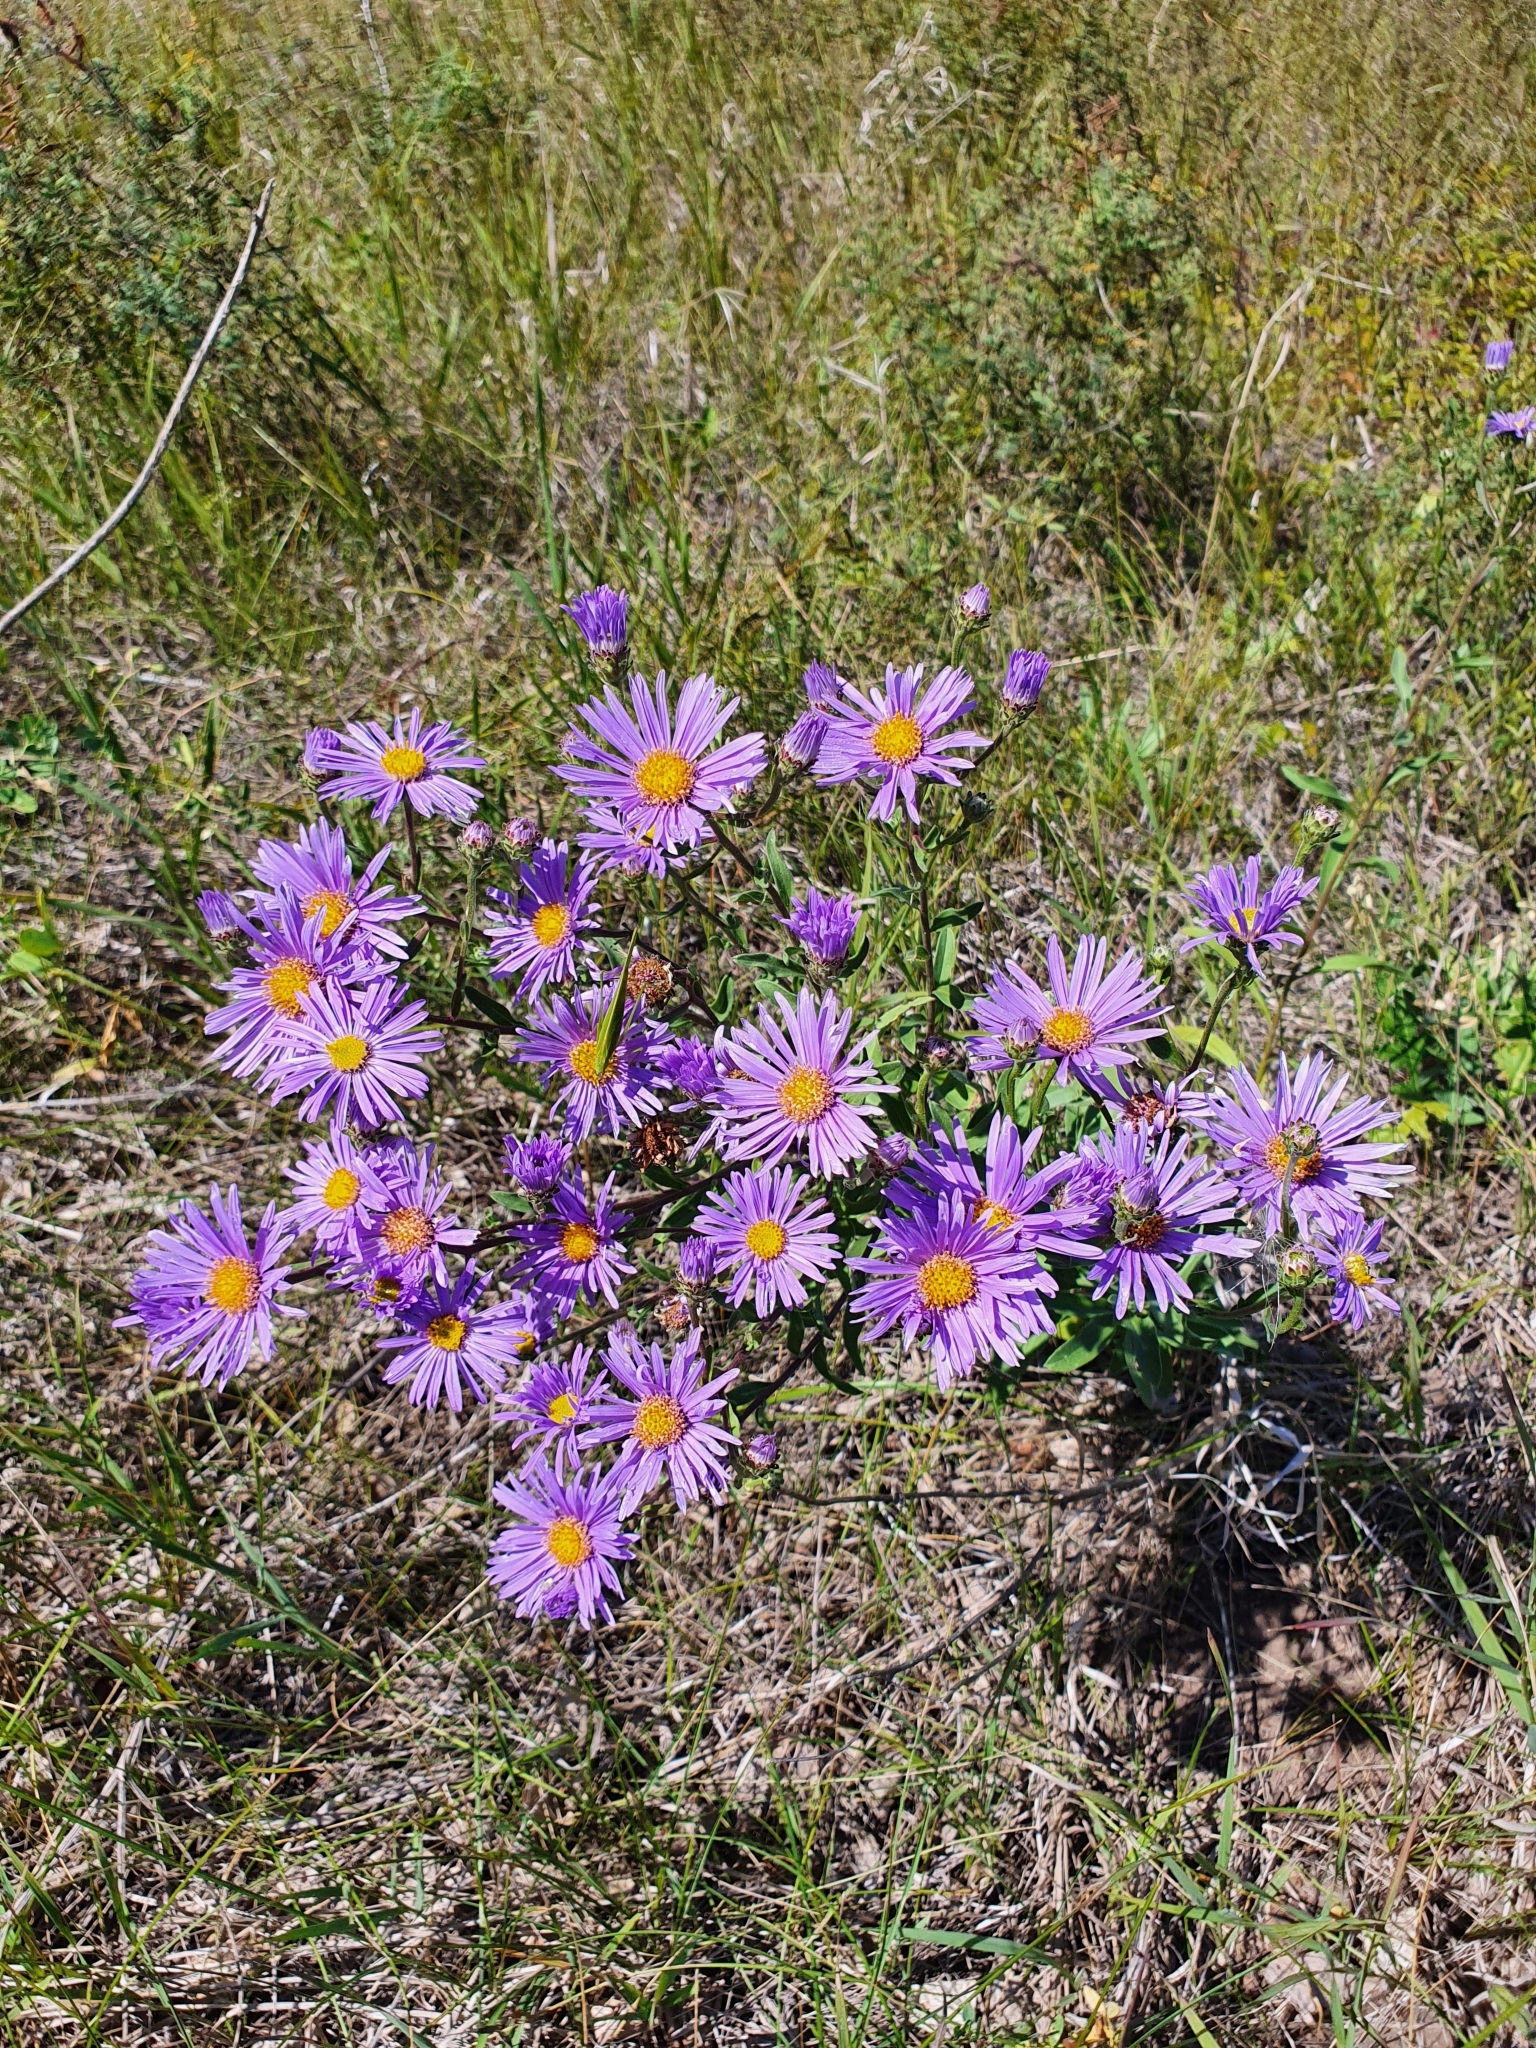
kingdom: Plantae
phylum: Tracheophyta
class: Magnoliopsida
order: Asterales
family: Asteraceae
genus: Aster
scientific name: Aster amellus
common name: European michaelmas daisy
